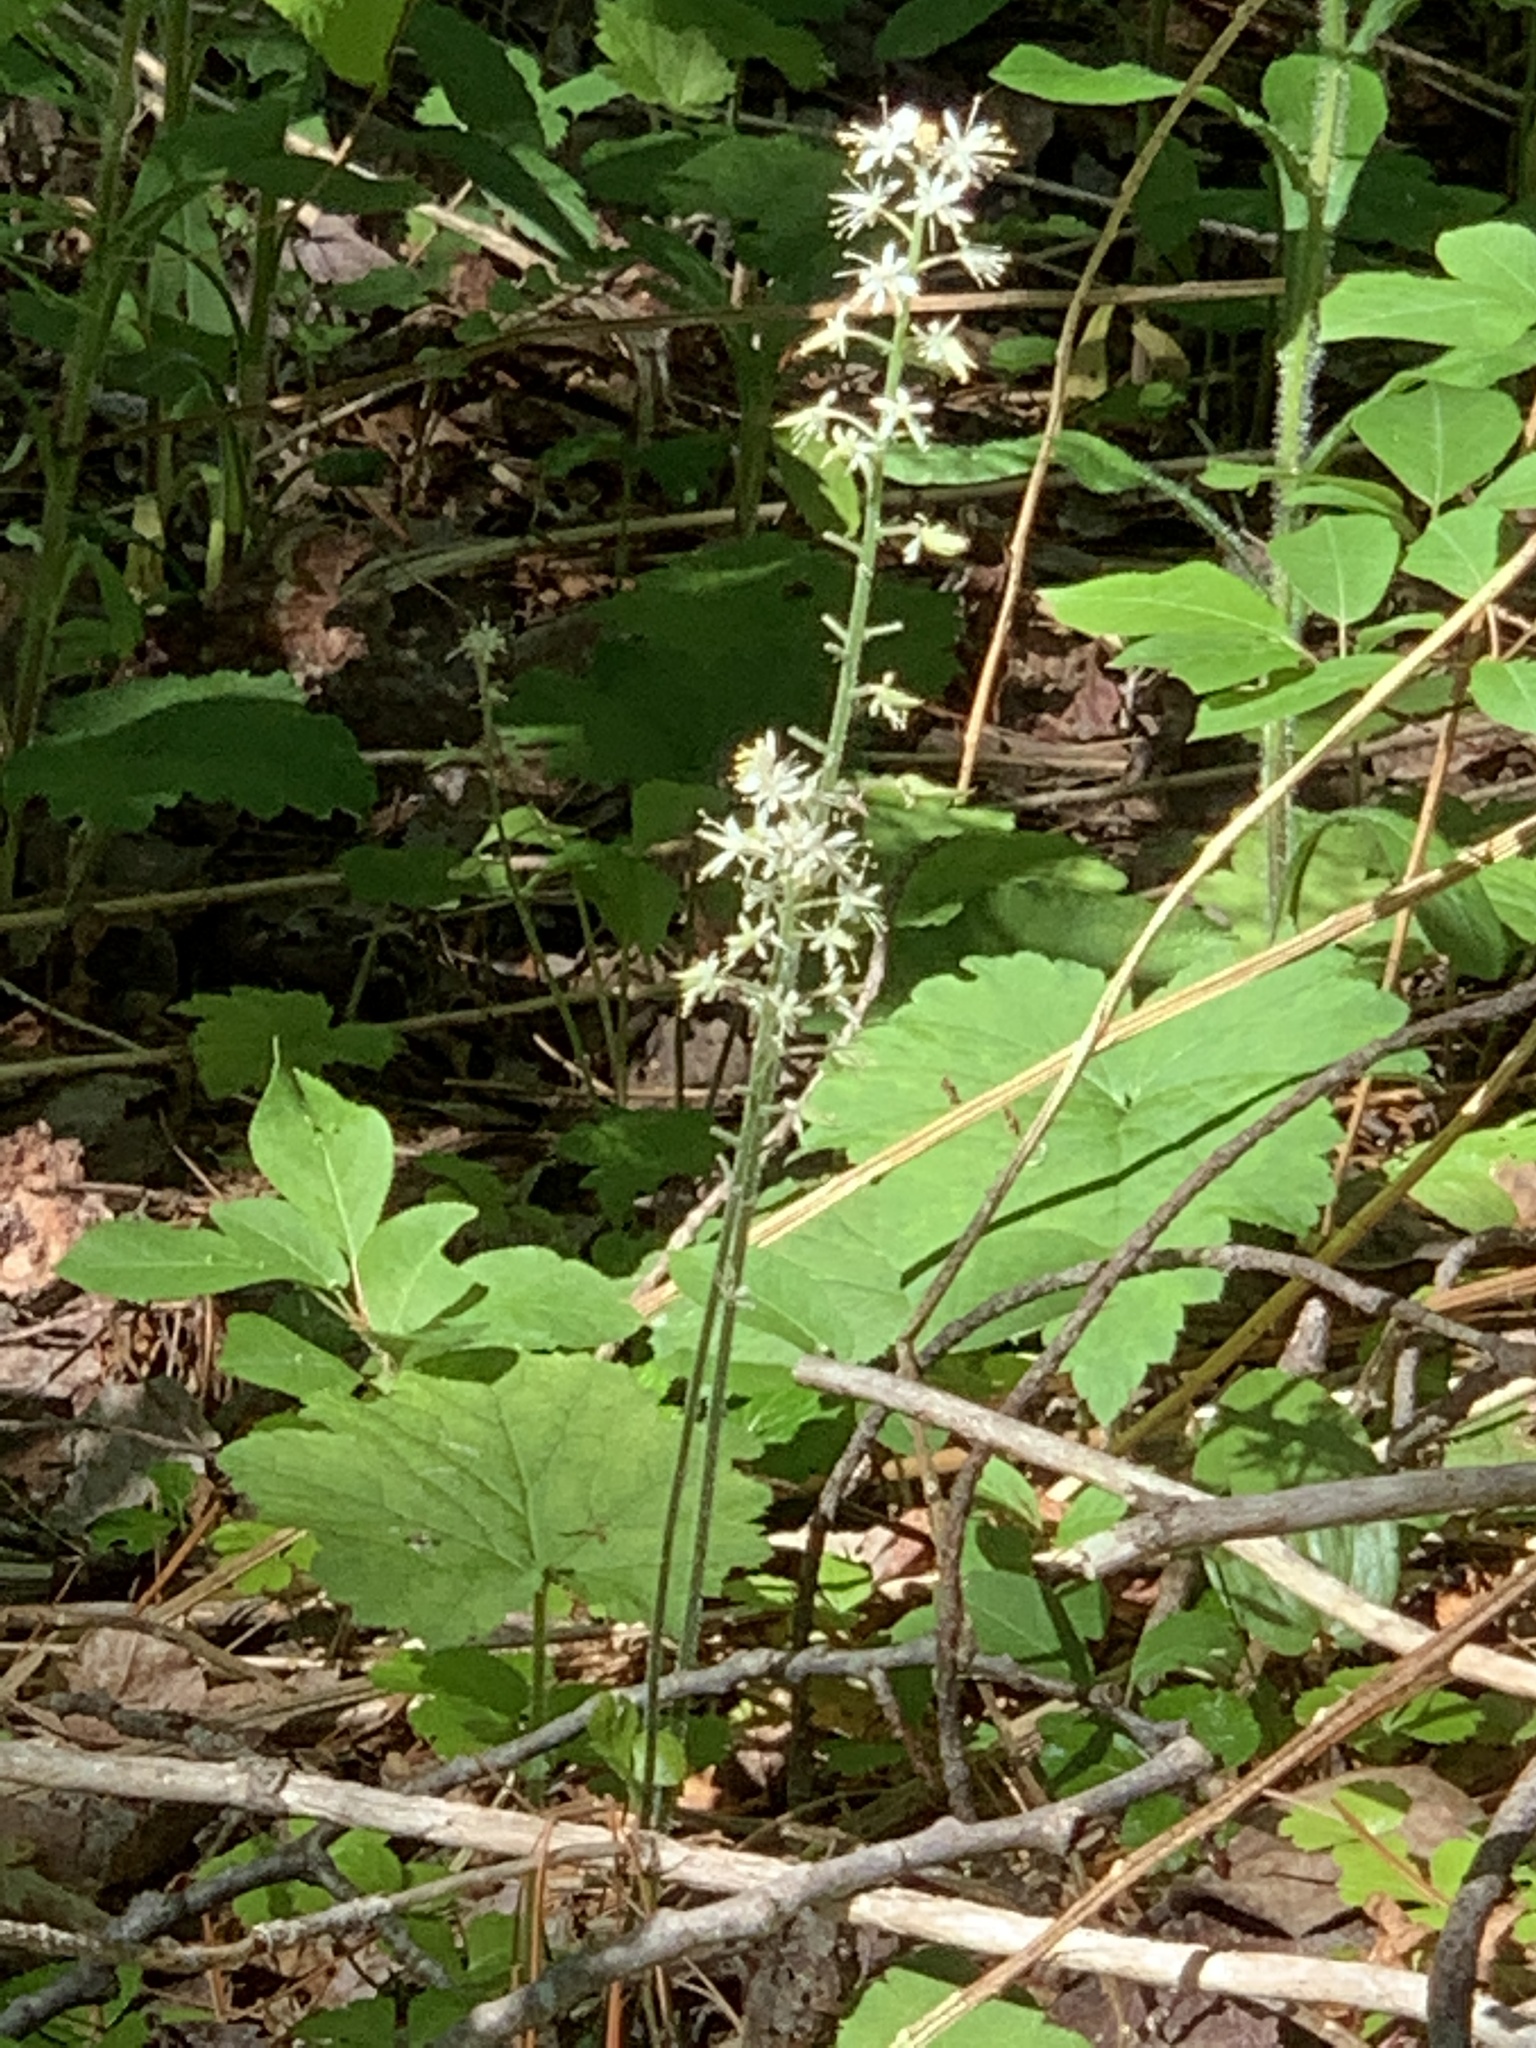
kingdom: Plantae
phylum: Tracheophyta
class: Magnoliopsida
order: Saxifragales
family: Saxifragaceae
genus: Tiarella
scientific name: Tiarella stolonifera
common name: Stoloniferous foamflower
